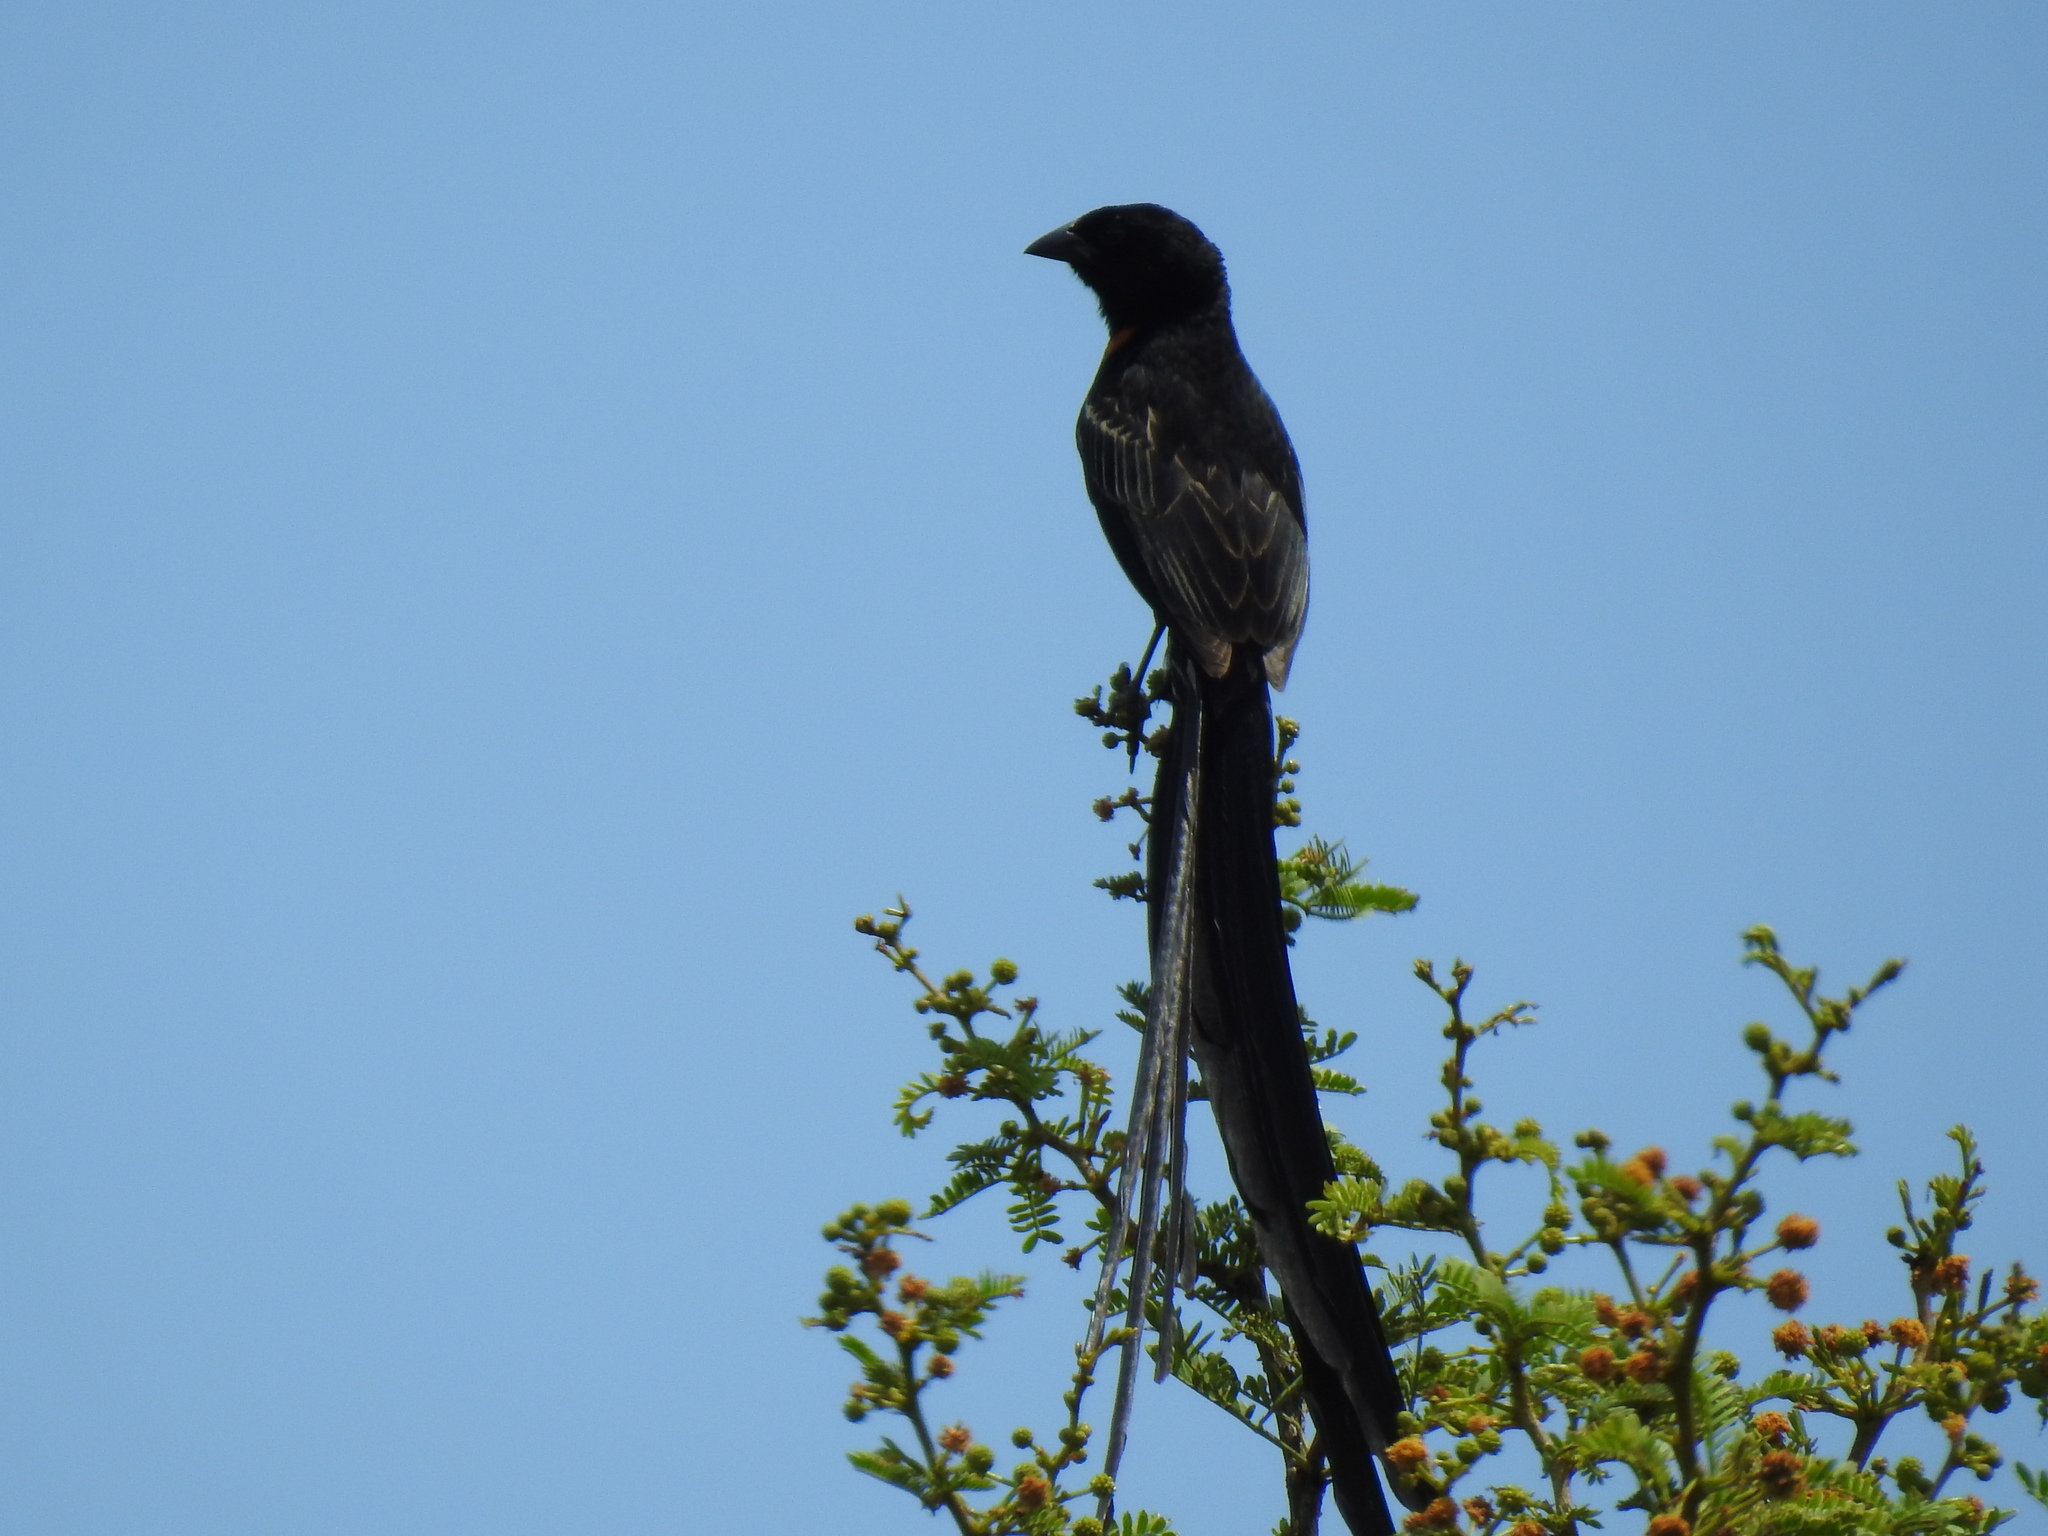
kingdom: Animalia
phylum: Chordata
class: Aves
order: Passeriformes
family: Ploceidae
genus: Euplectes
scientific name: Euplectes ardens
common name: Red-collared widowbird
